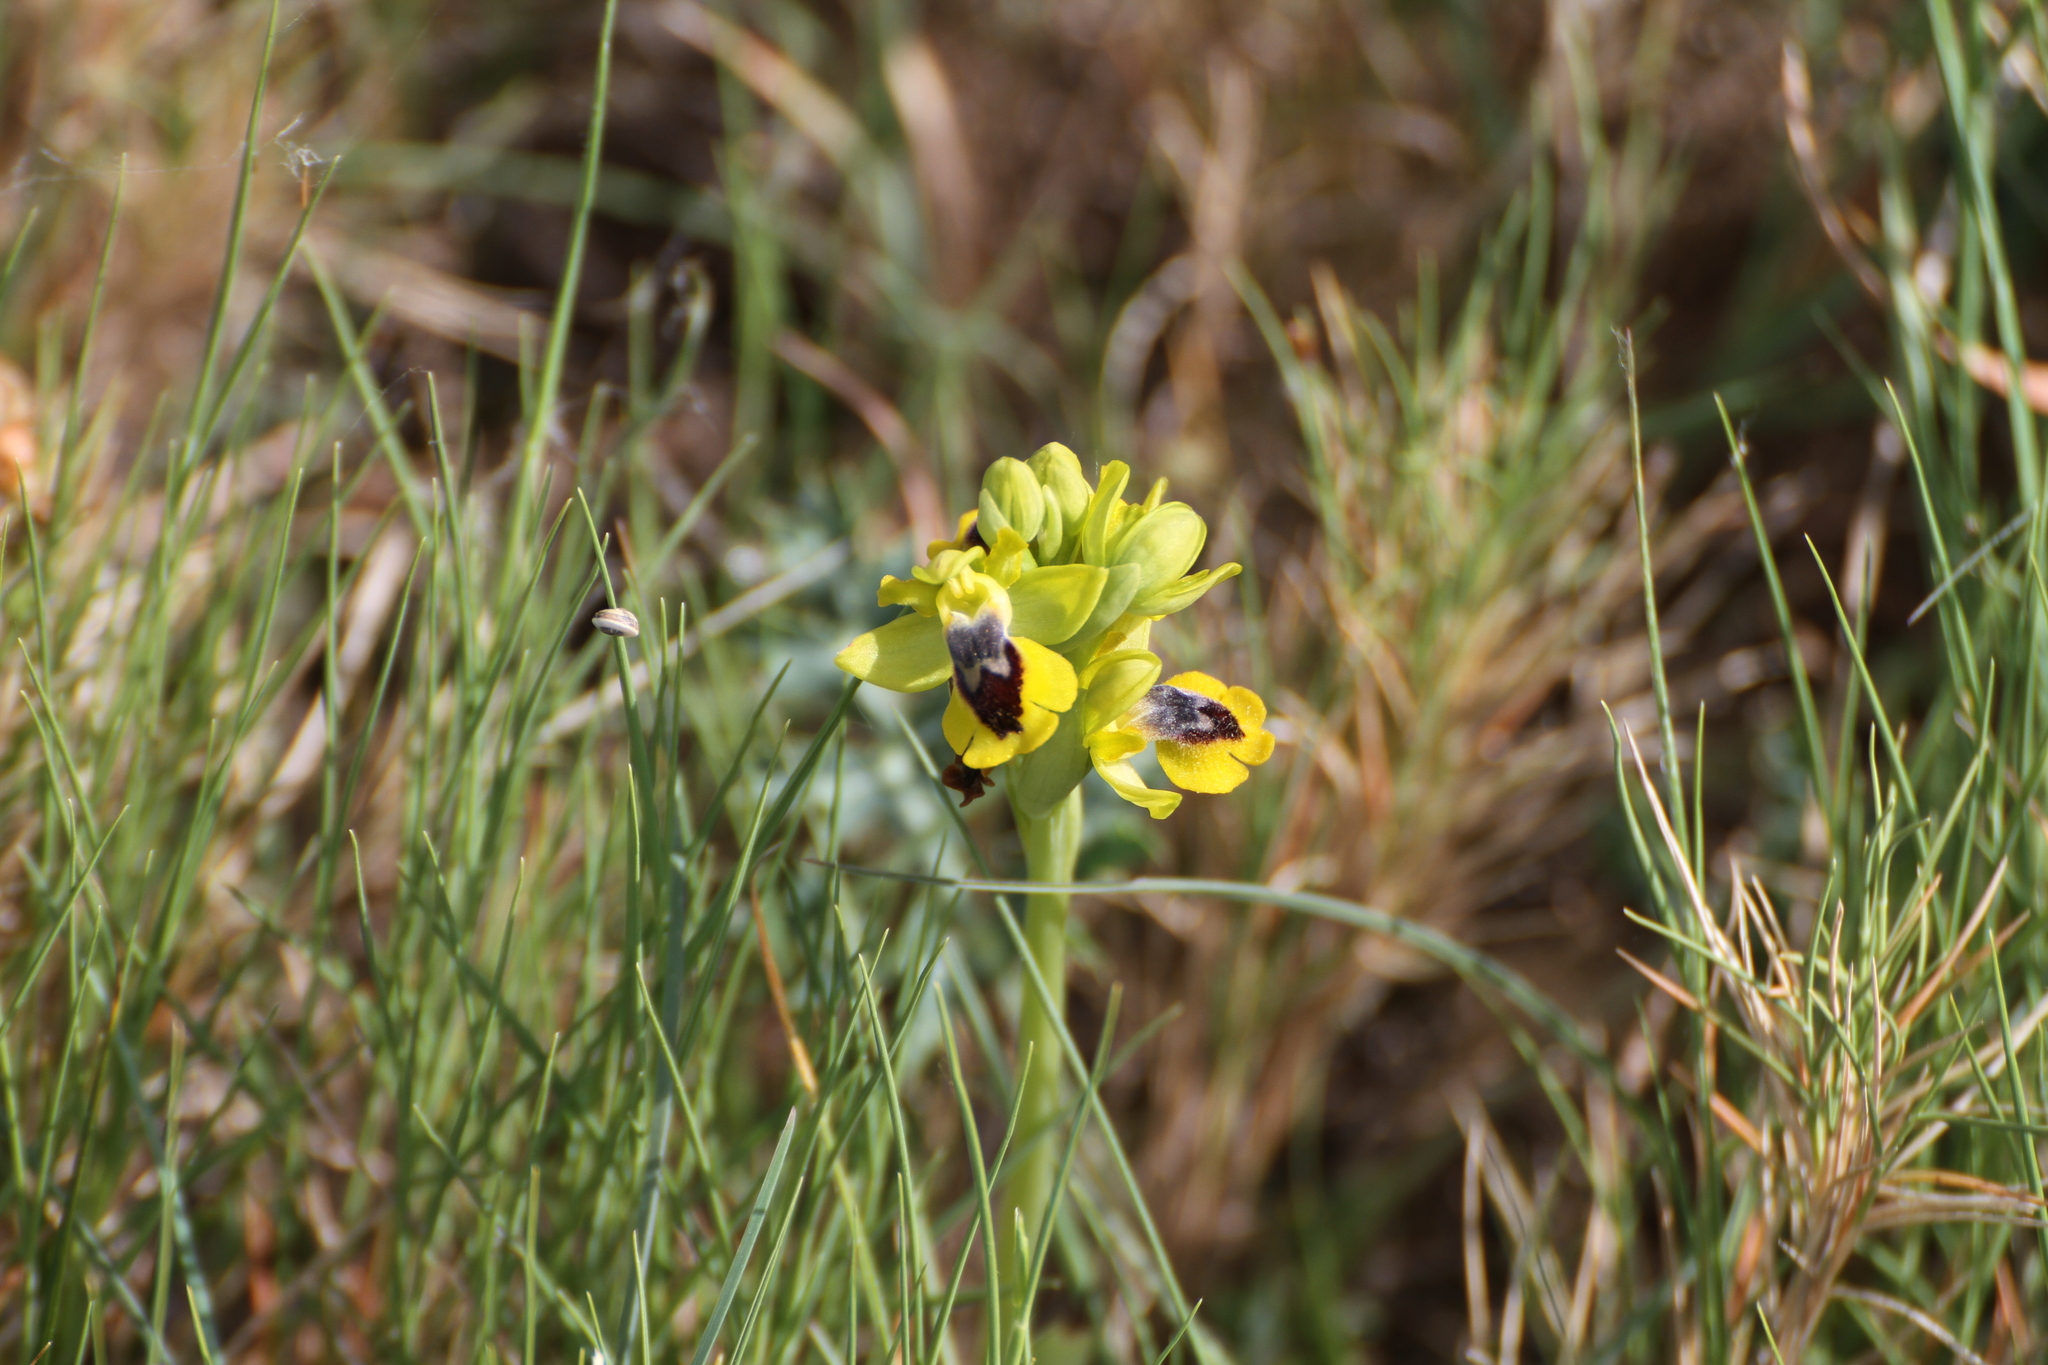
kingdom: Plantae
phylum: Tracheophyta
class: Liliopsida
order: Asparagales
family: Orchidaceae
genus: Ophrys
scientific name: Ophrys lutea
